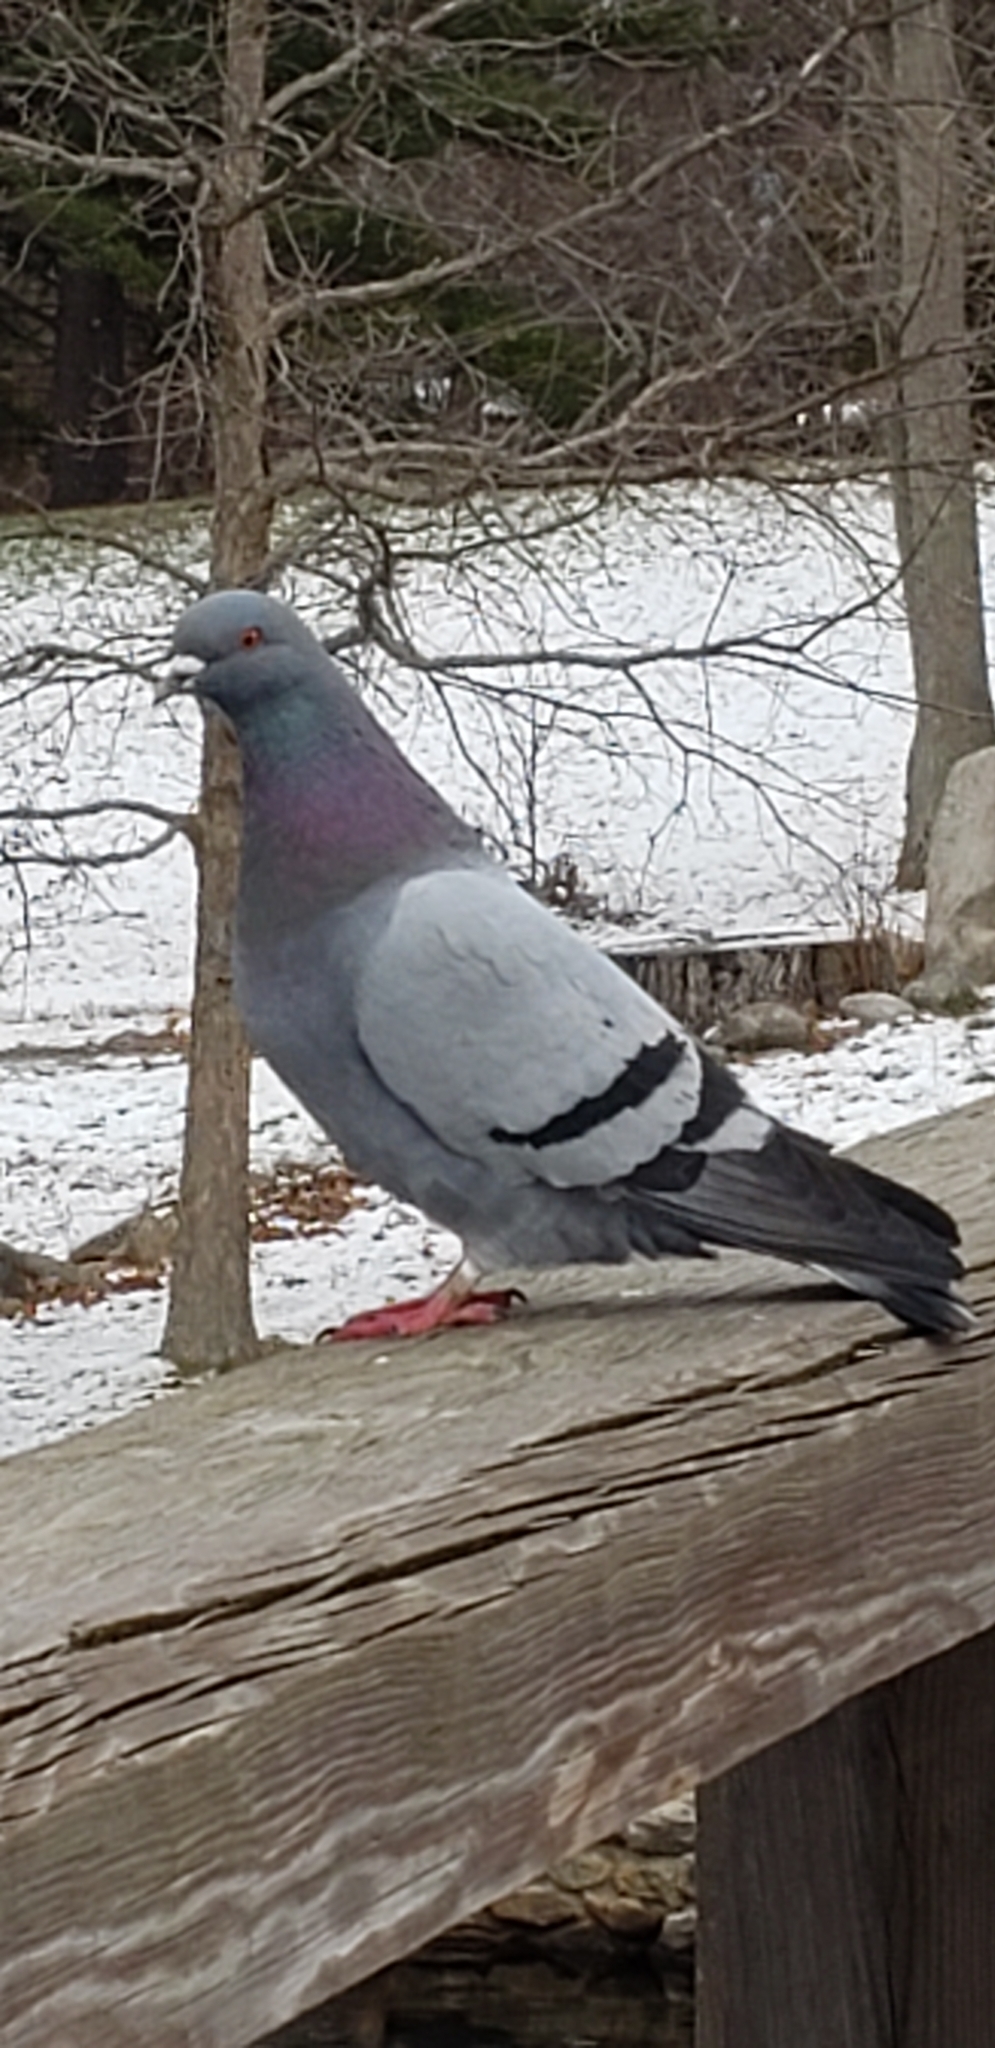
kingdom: Animalia
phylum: Chordata
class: Aves
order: Columbiformes
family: Columbidae
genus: Columba
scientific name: Columba livia
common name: Rock pigeon
